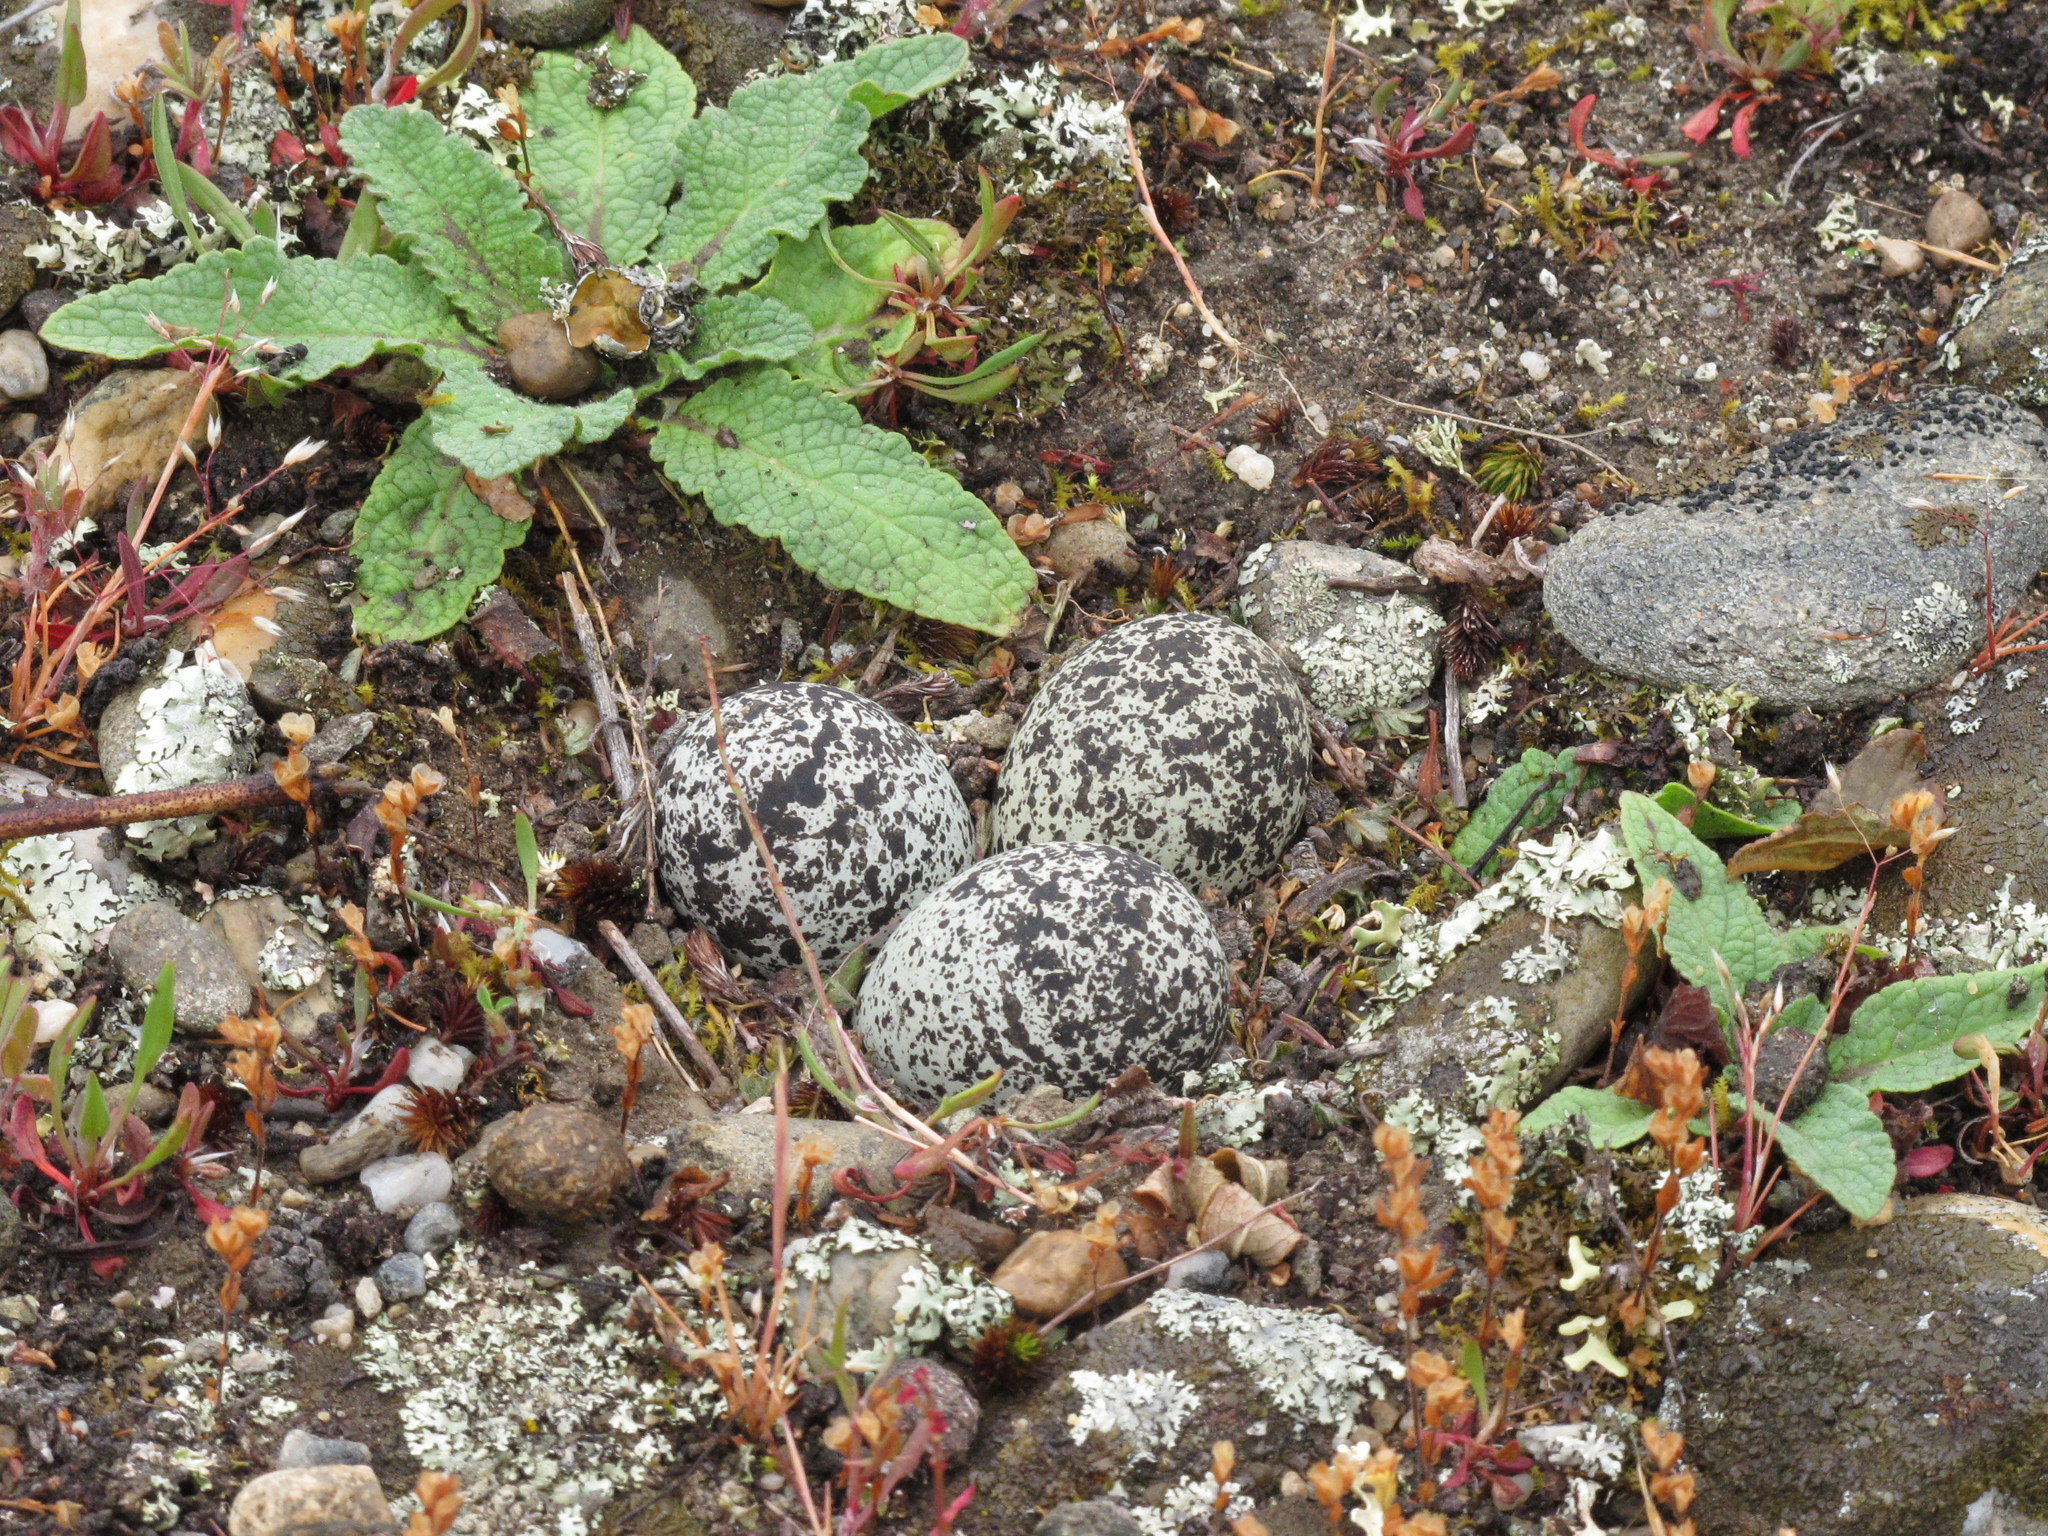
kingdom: Animalia
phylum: Chordata
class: Aves
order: Charadriiformes
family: Charadriidae
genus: Anarhynchus
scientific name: Anarhynchus
